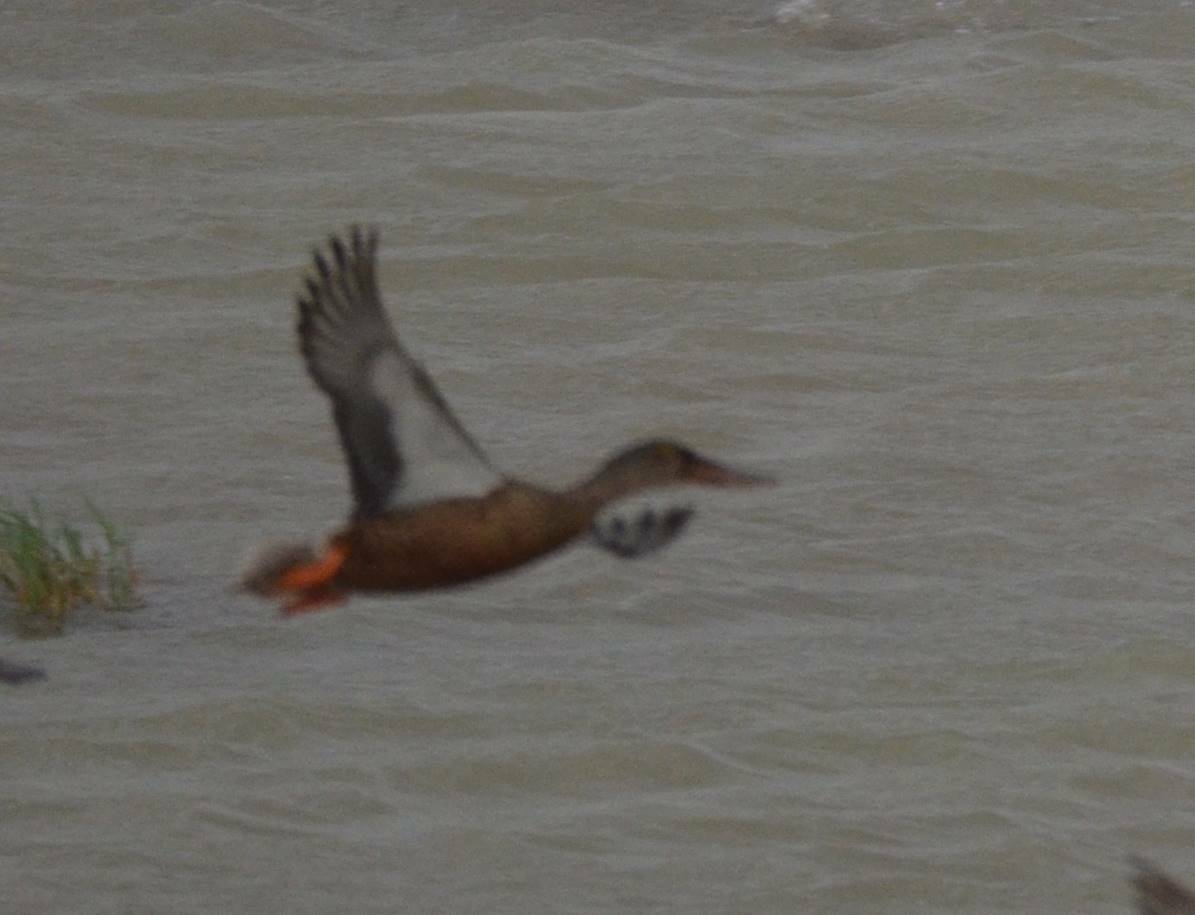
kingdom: Animalia
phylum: Chordata
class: Aves
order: Anseriformes
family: Anatidae
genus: Spatula
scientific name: Spatula clypeata
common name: Northern shoveler
